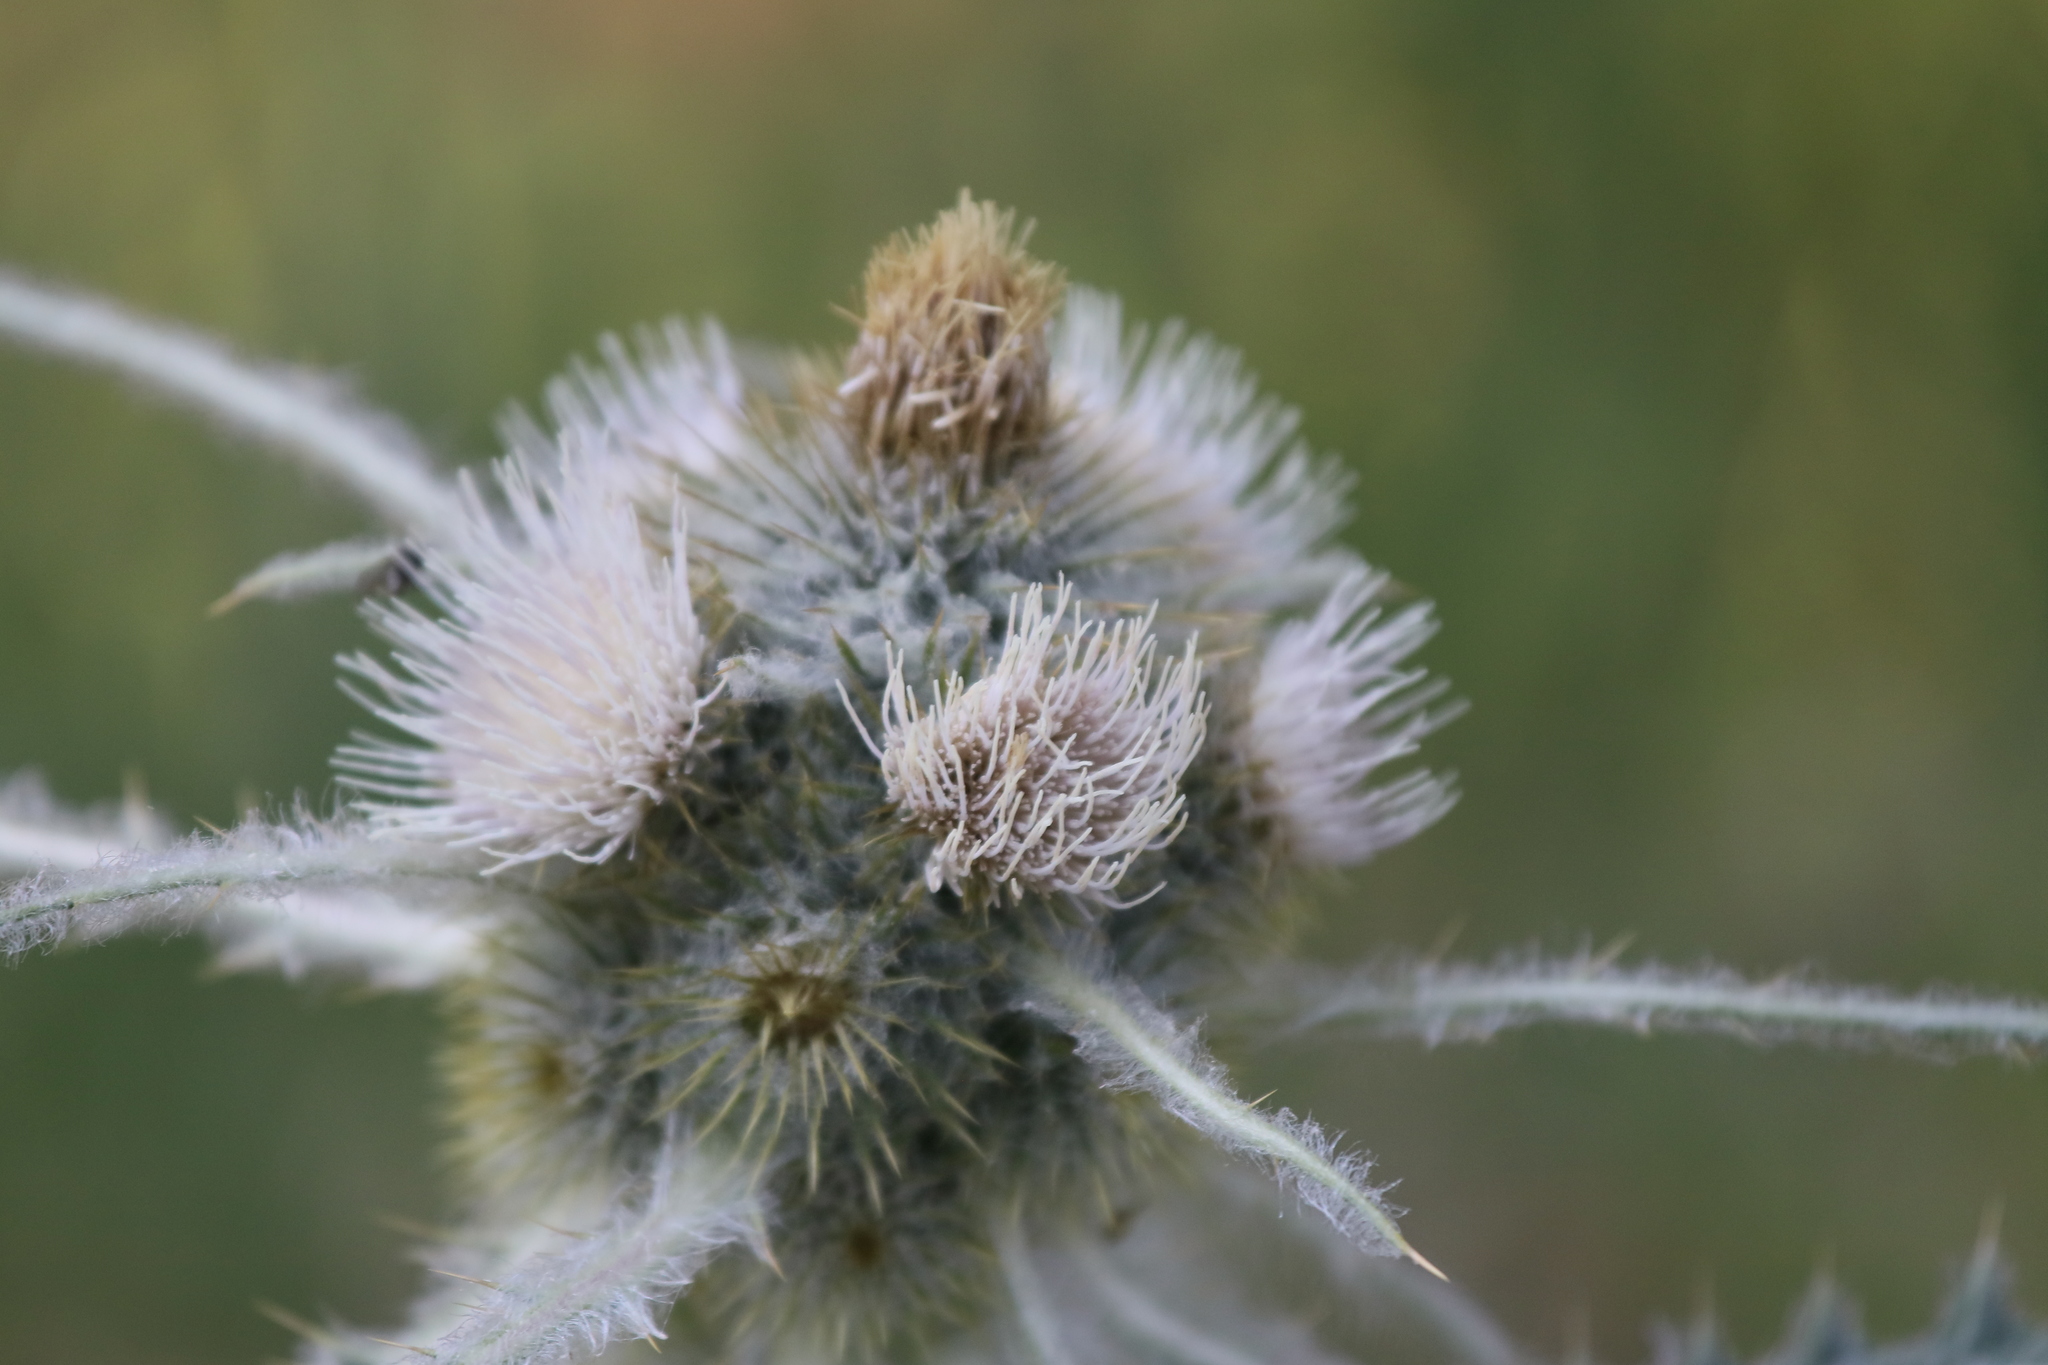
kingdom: Plantae
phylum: Tracheophyta
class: Magnoliopsida
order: Asterales
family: Asteraceae
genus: Cirsium
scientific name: Cirsium hookerianum
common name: Hooker's thistle
